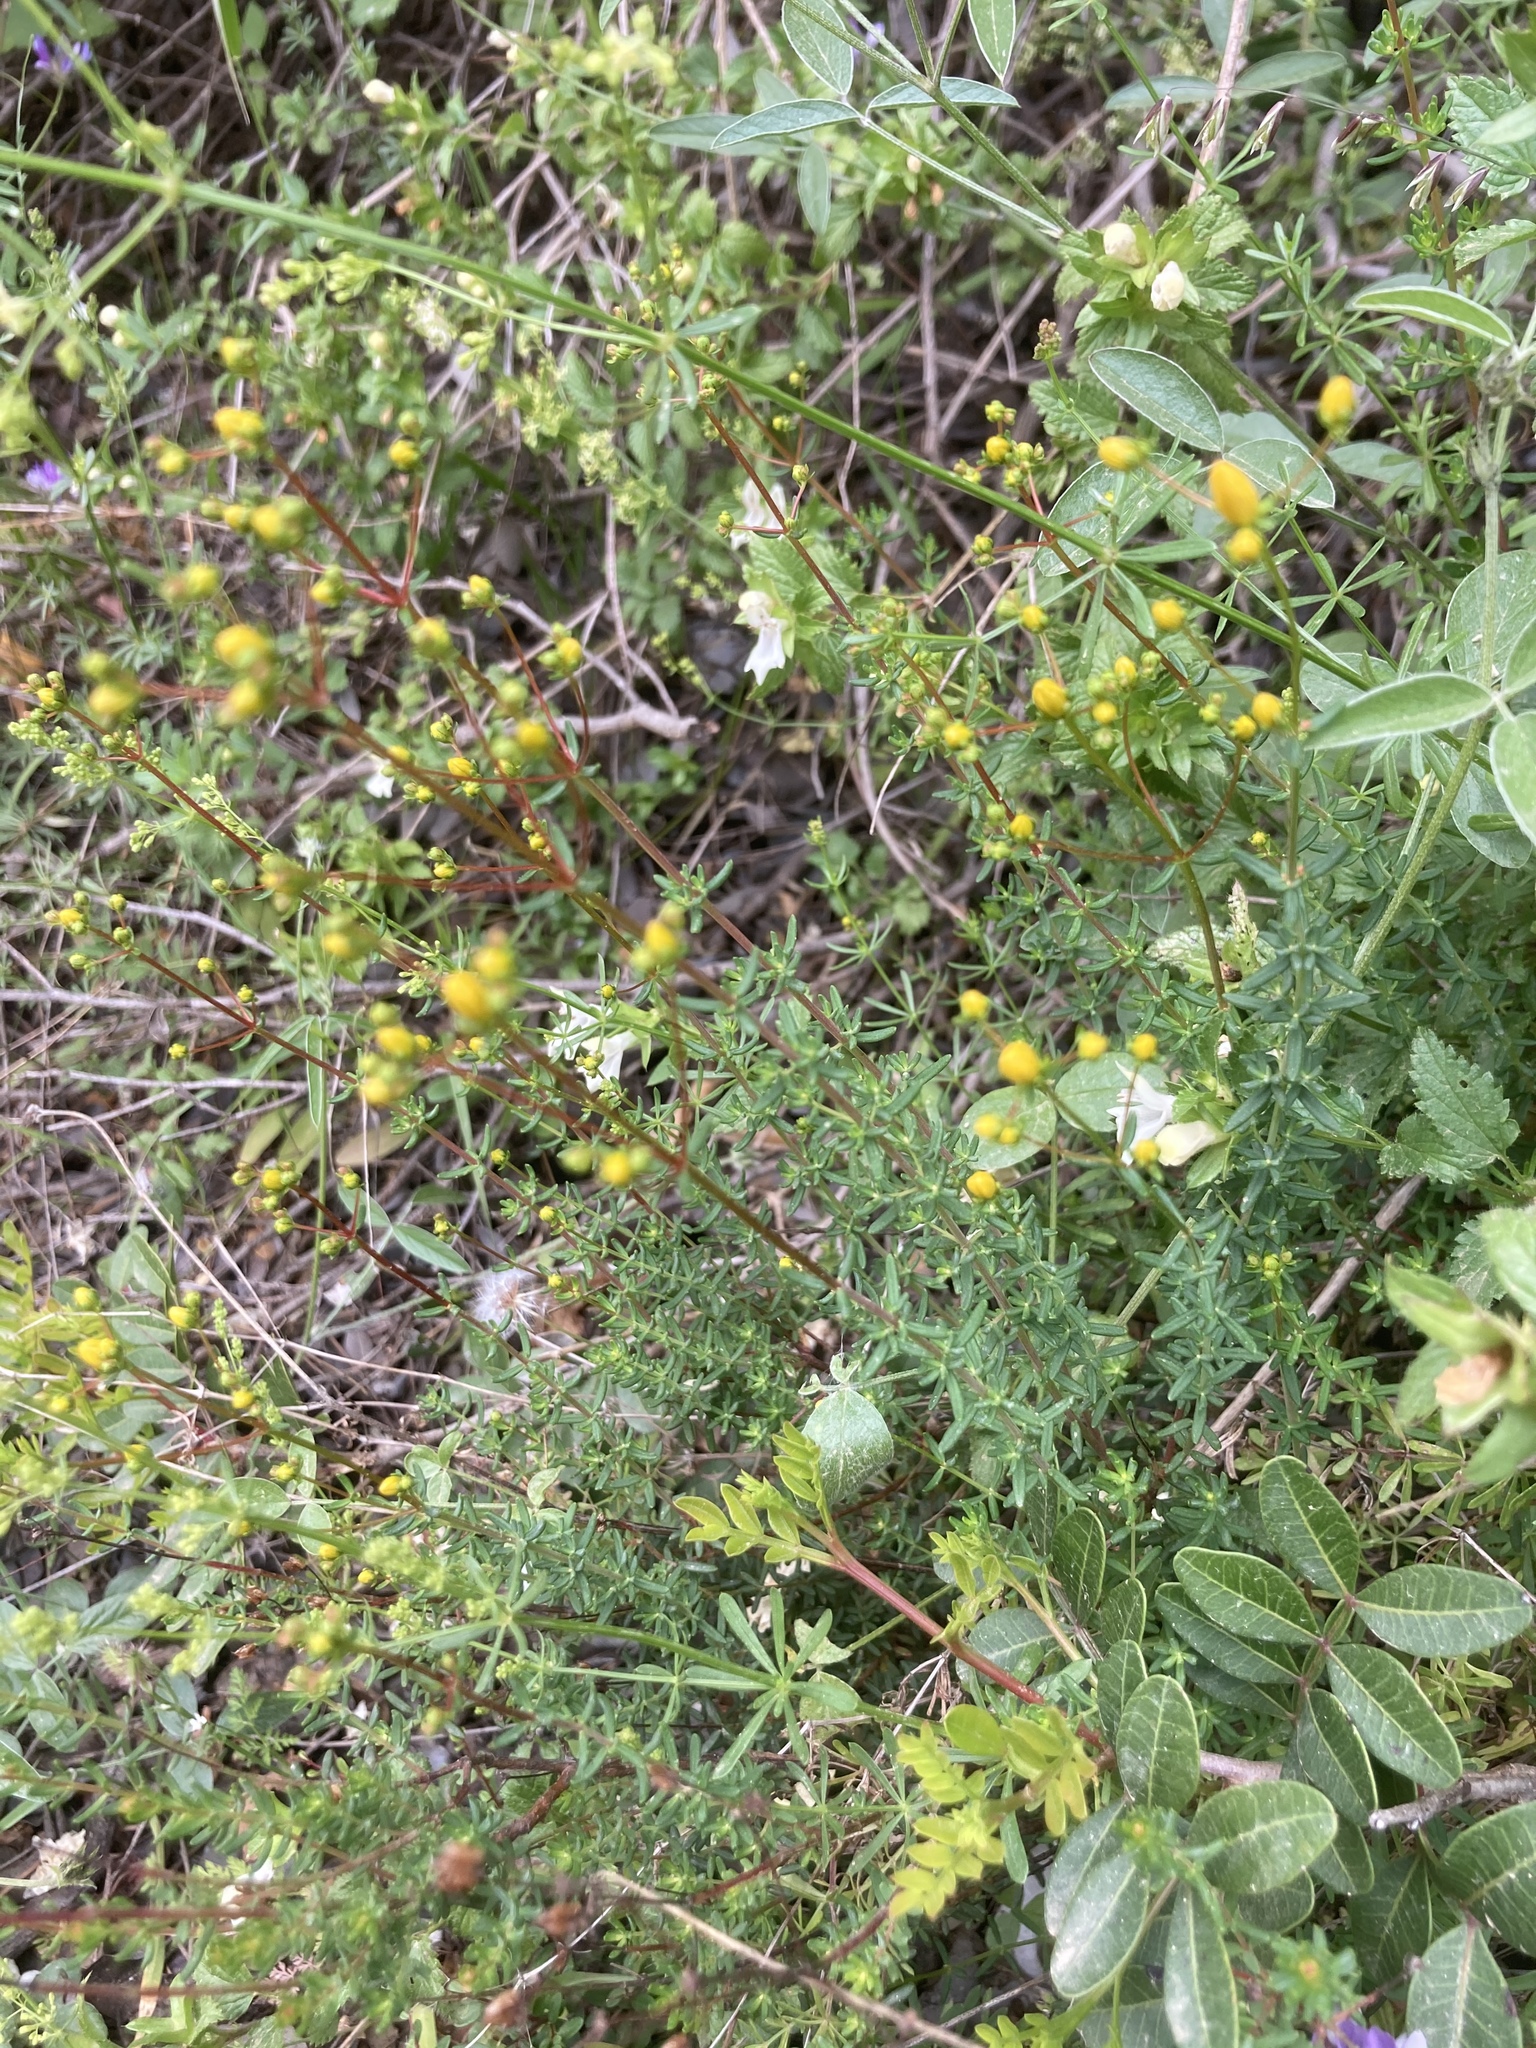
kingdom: Plantae
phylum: Tracheophyta
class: Magnoliopsida
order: Malpighiales
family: Hypericaceae
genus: Hypericum
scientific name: Hypericum empetrifolium
